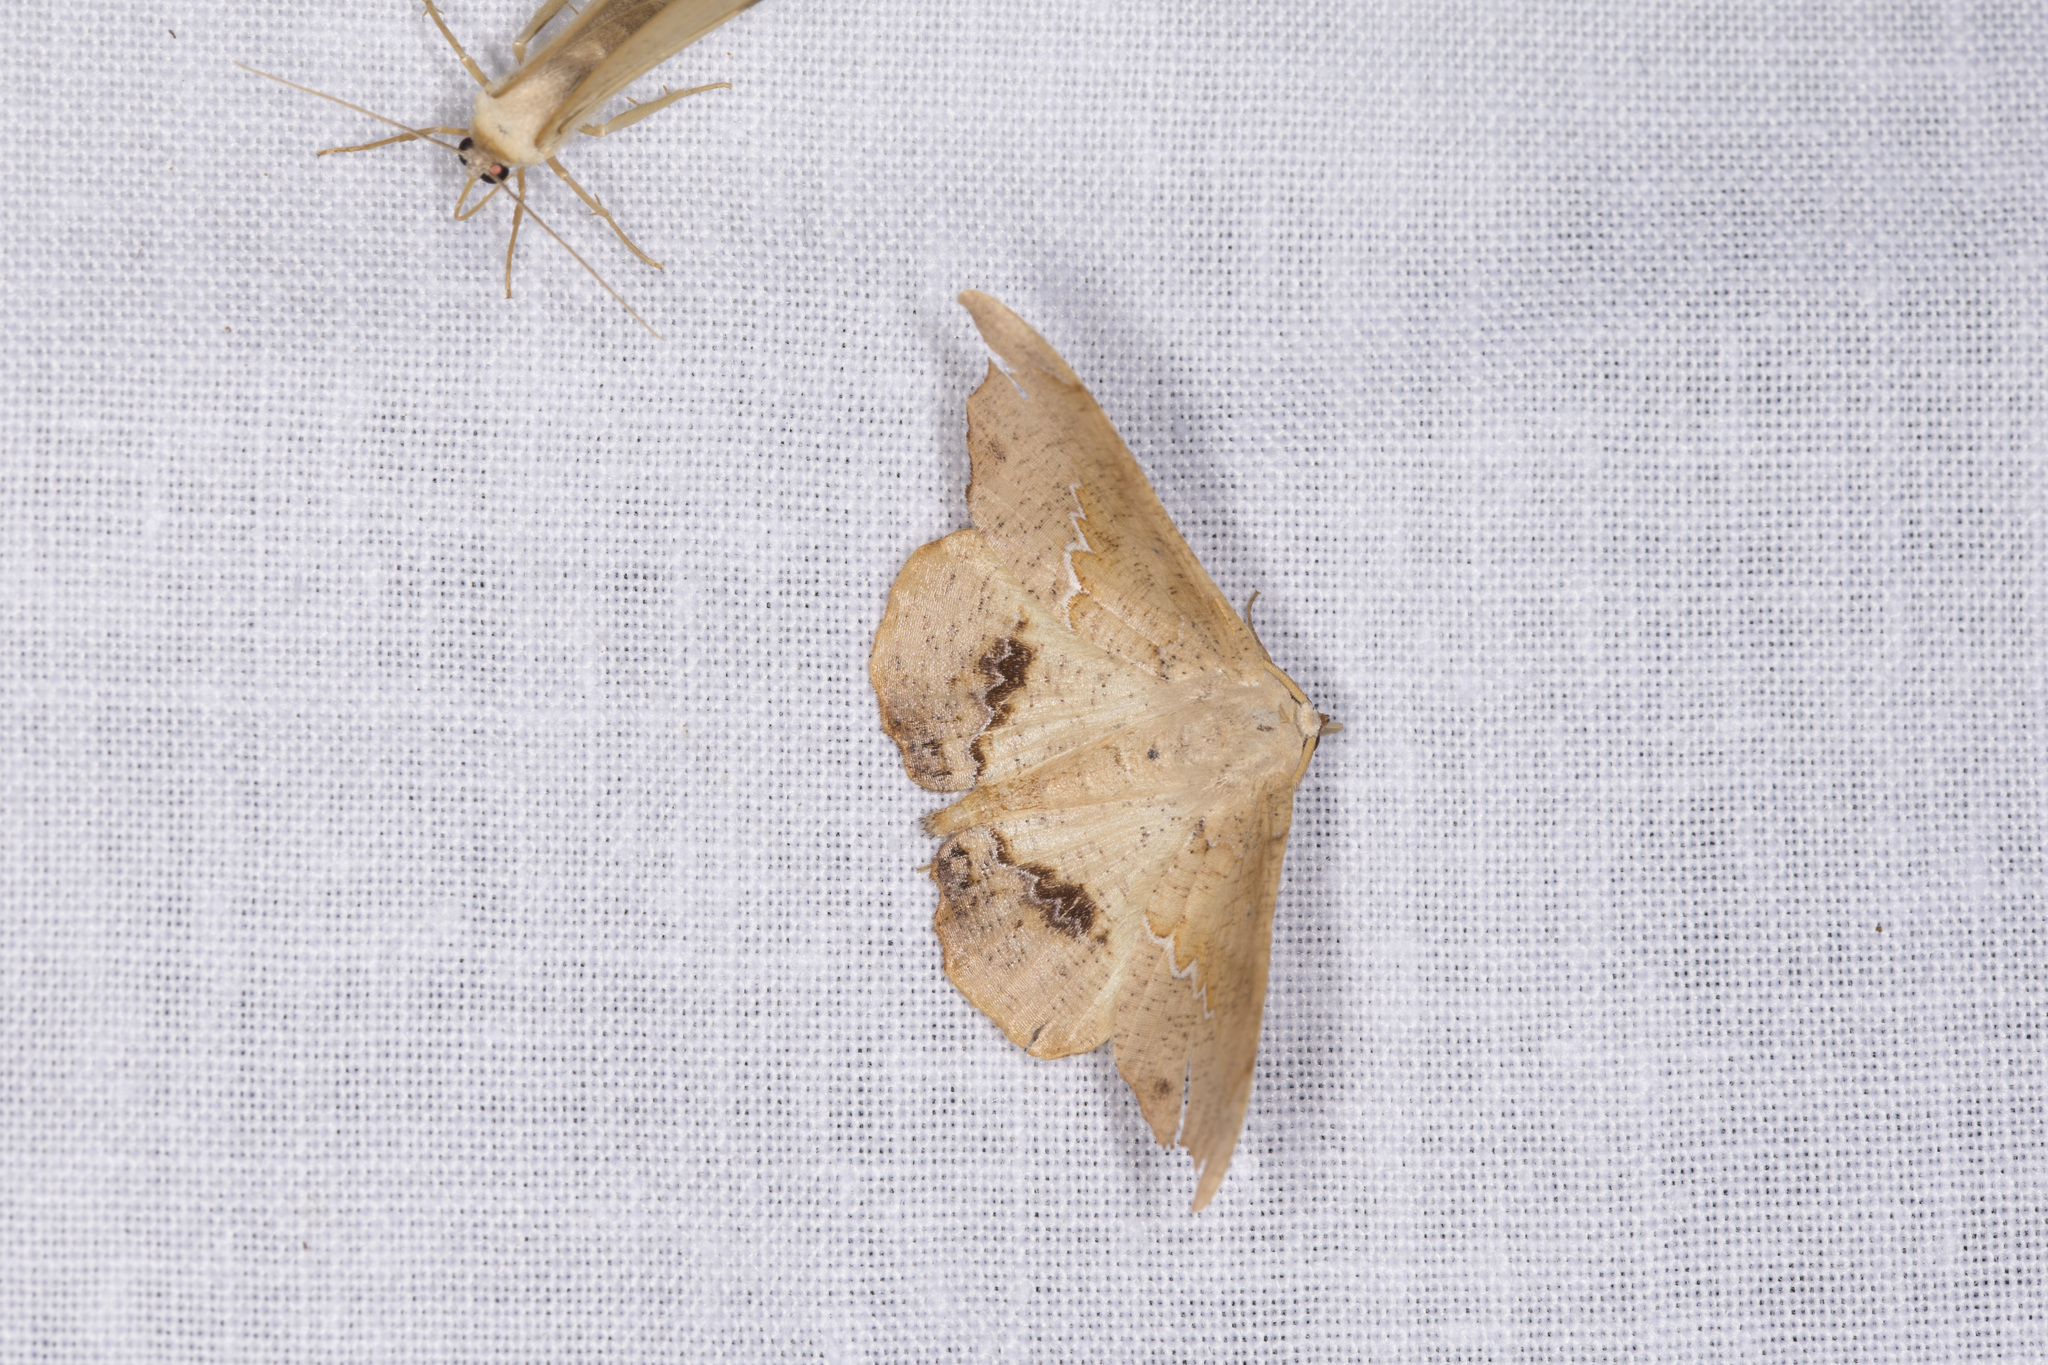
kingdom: Animalia
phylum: Arthropoda
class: Insecta
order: Lepidoptera
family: Geometridae
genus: Patalene
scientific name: Patalene asychisaria
